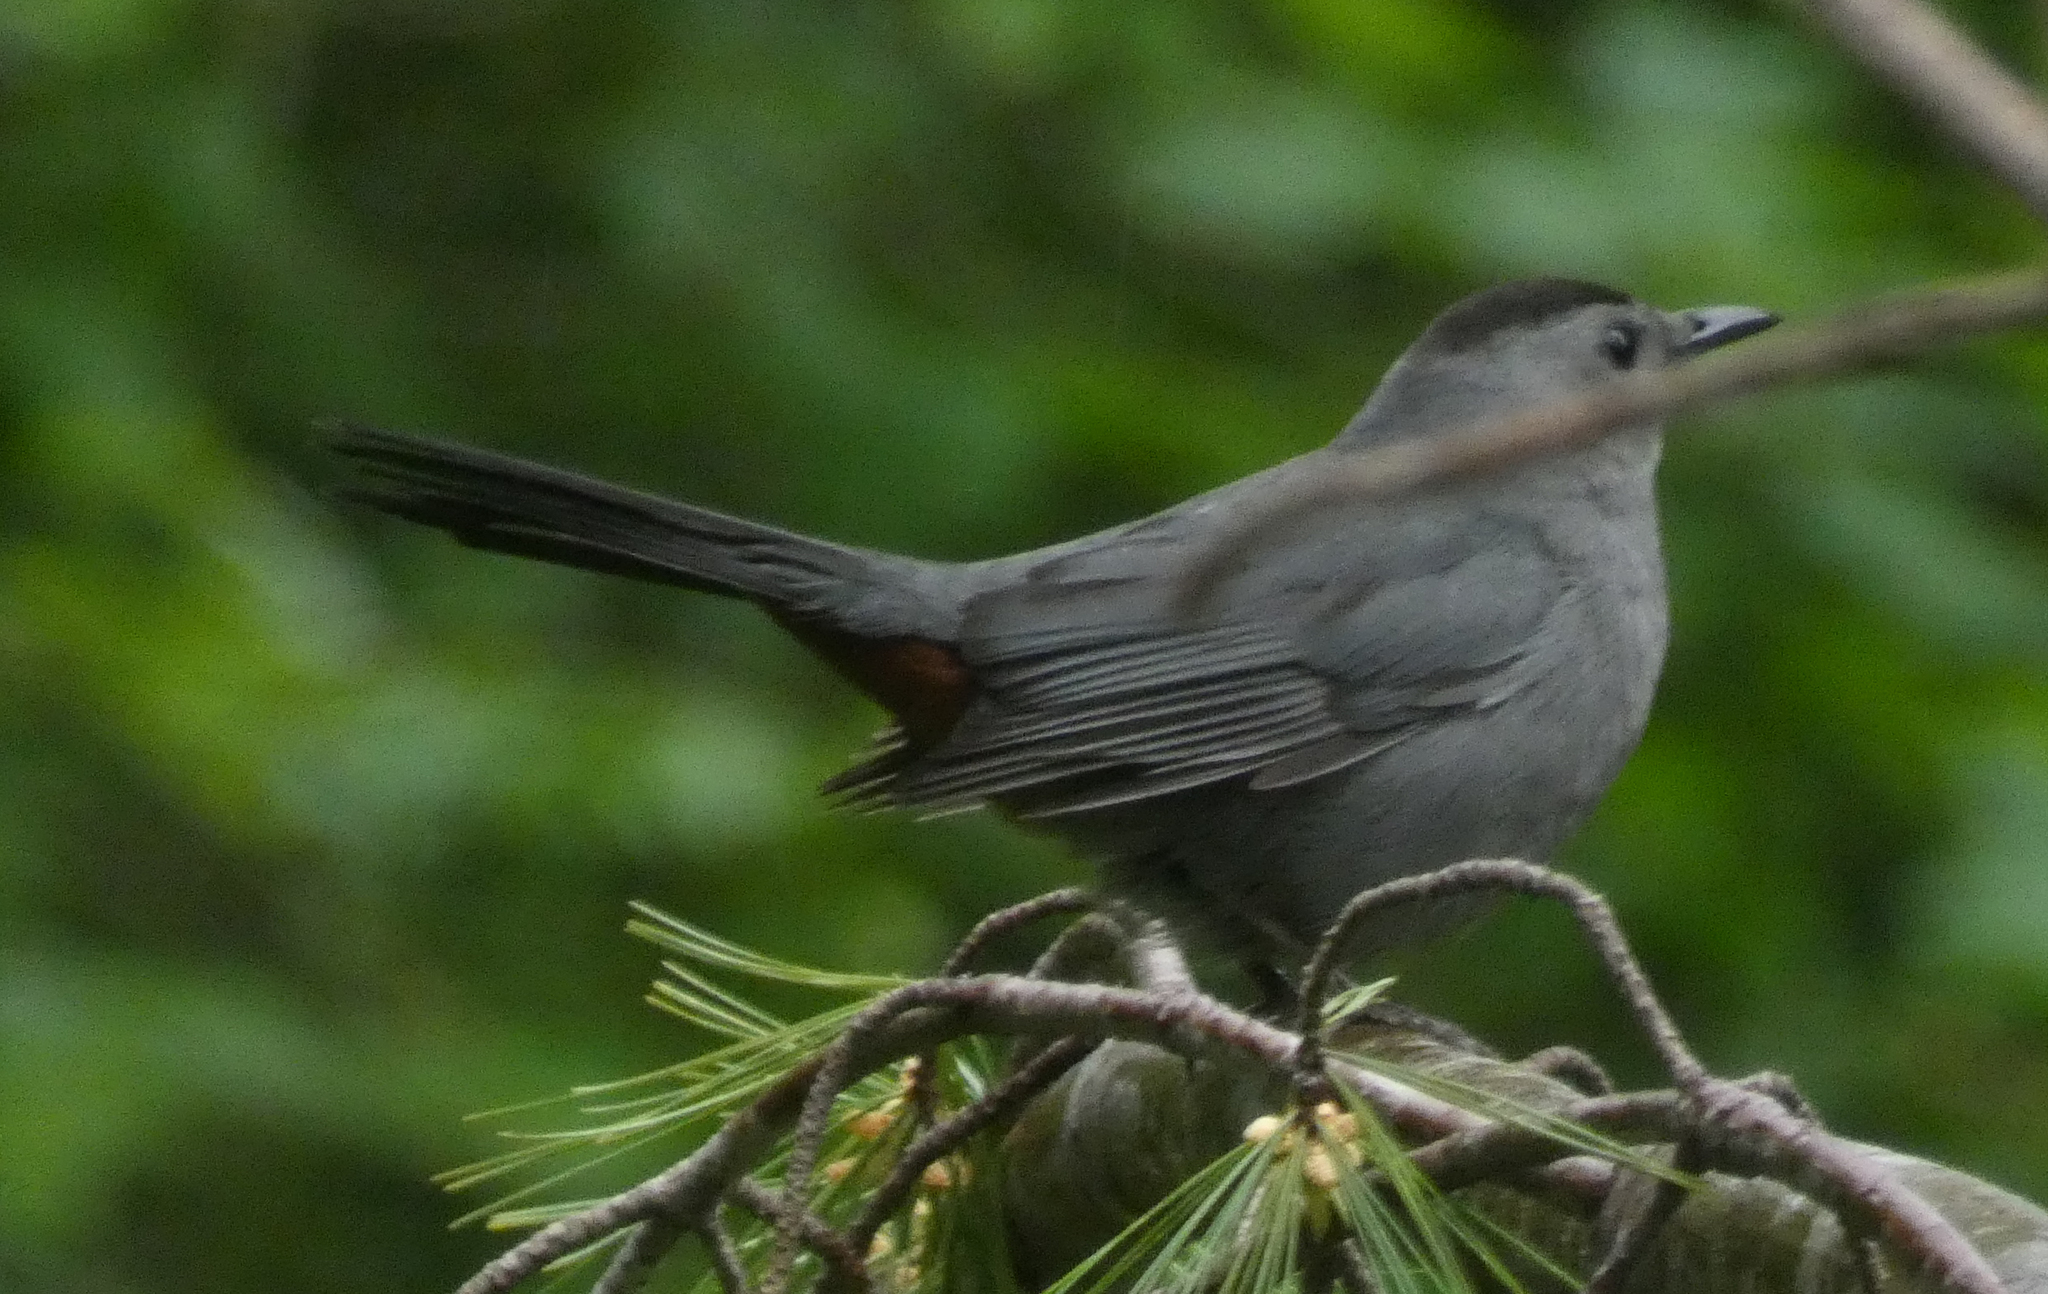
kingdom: Animalia
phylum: Chordata
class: Aves
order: Passeriformes
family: Mimidae
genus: Dumetella
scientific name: Dumetella carolinensis
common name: Gray catbird
